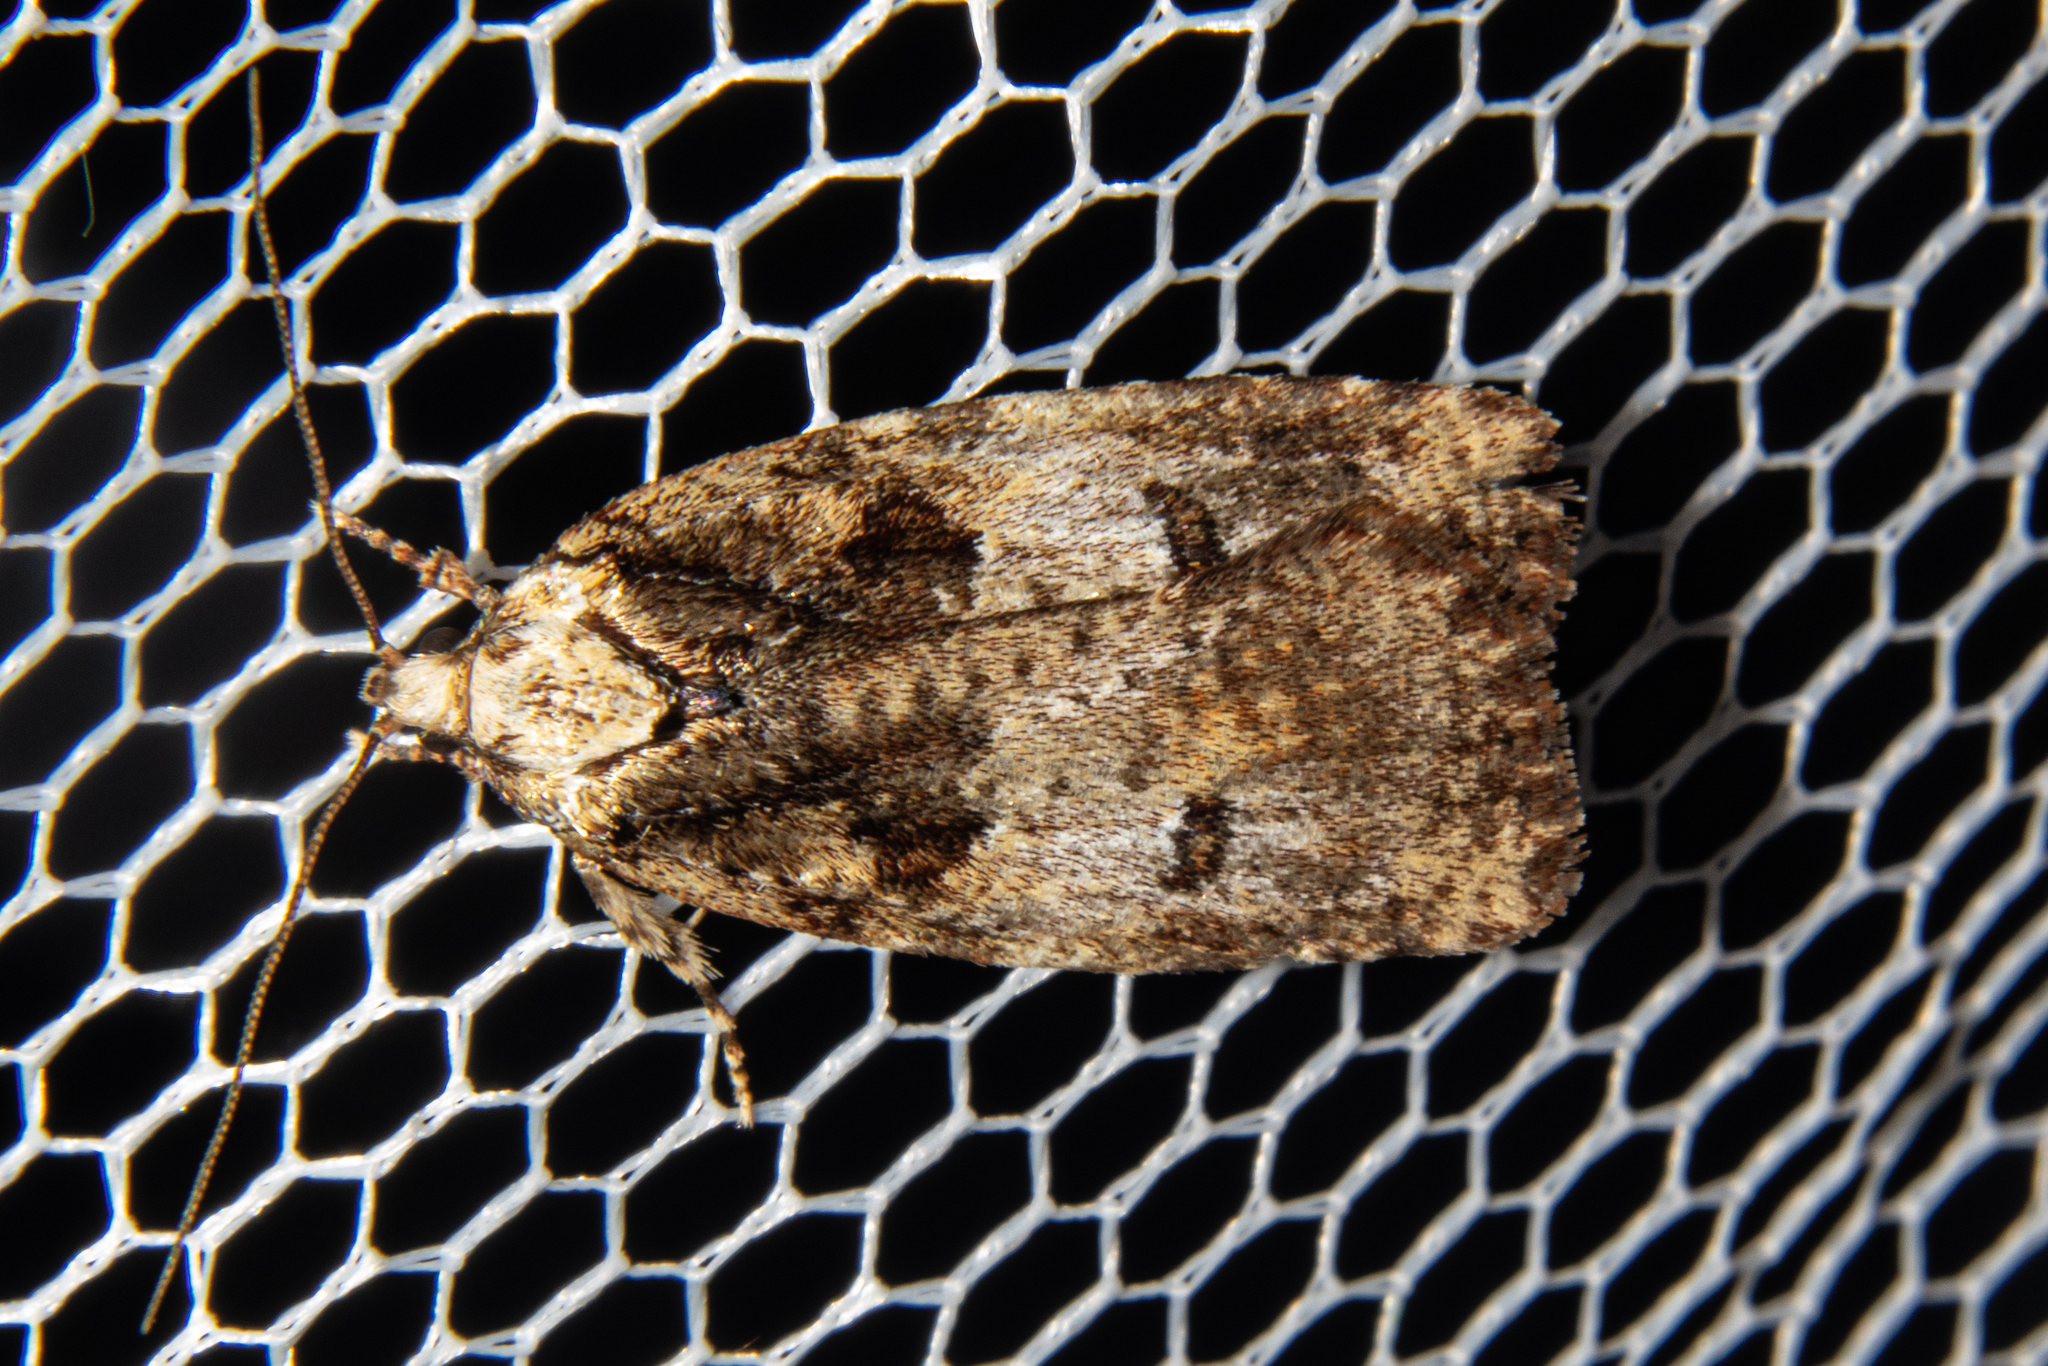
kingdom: Animalia
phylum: Arthropoda
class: Insecta
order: Lepidoptera
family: Oecophoridae
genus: Proteodes
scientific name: Proteodes profunda
